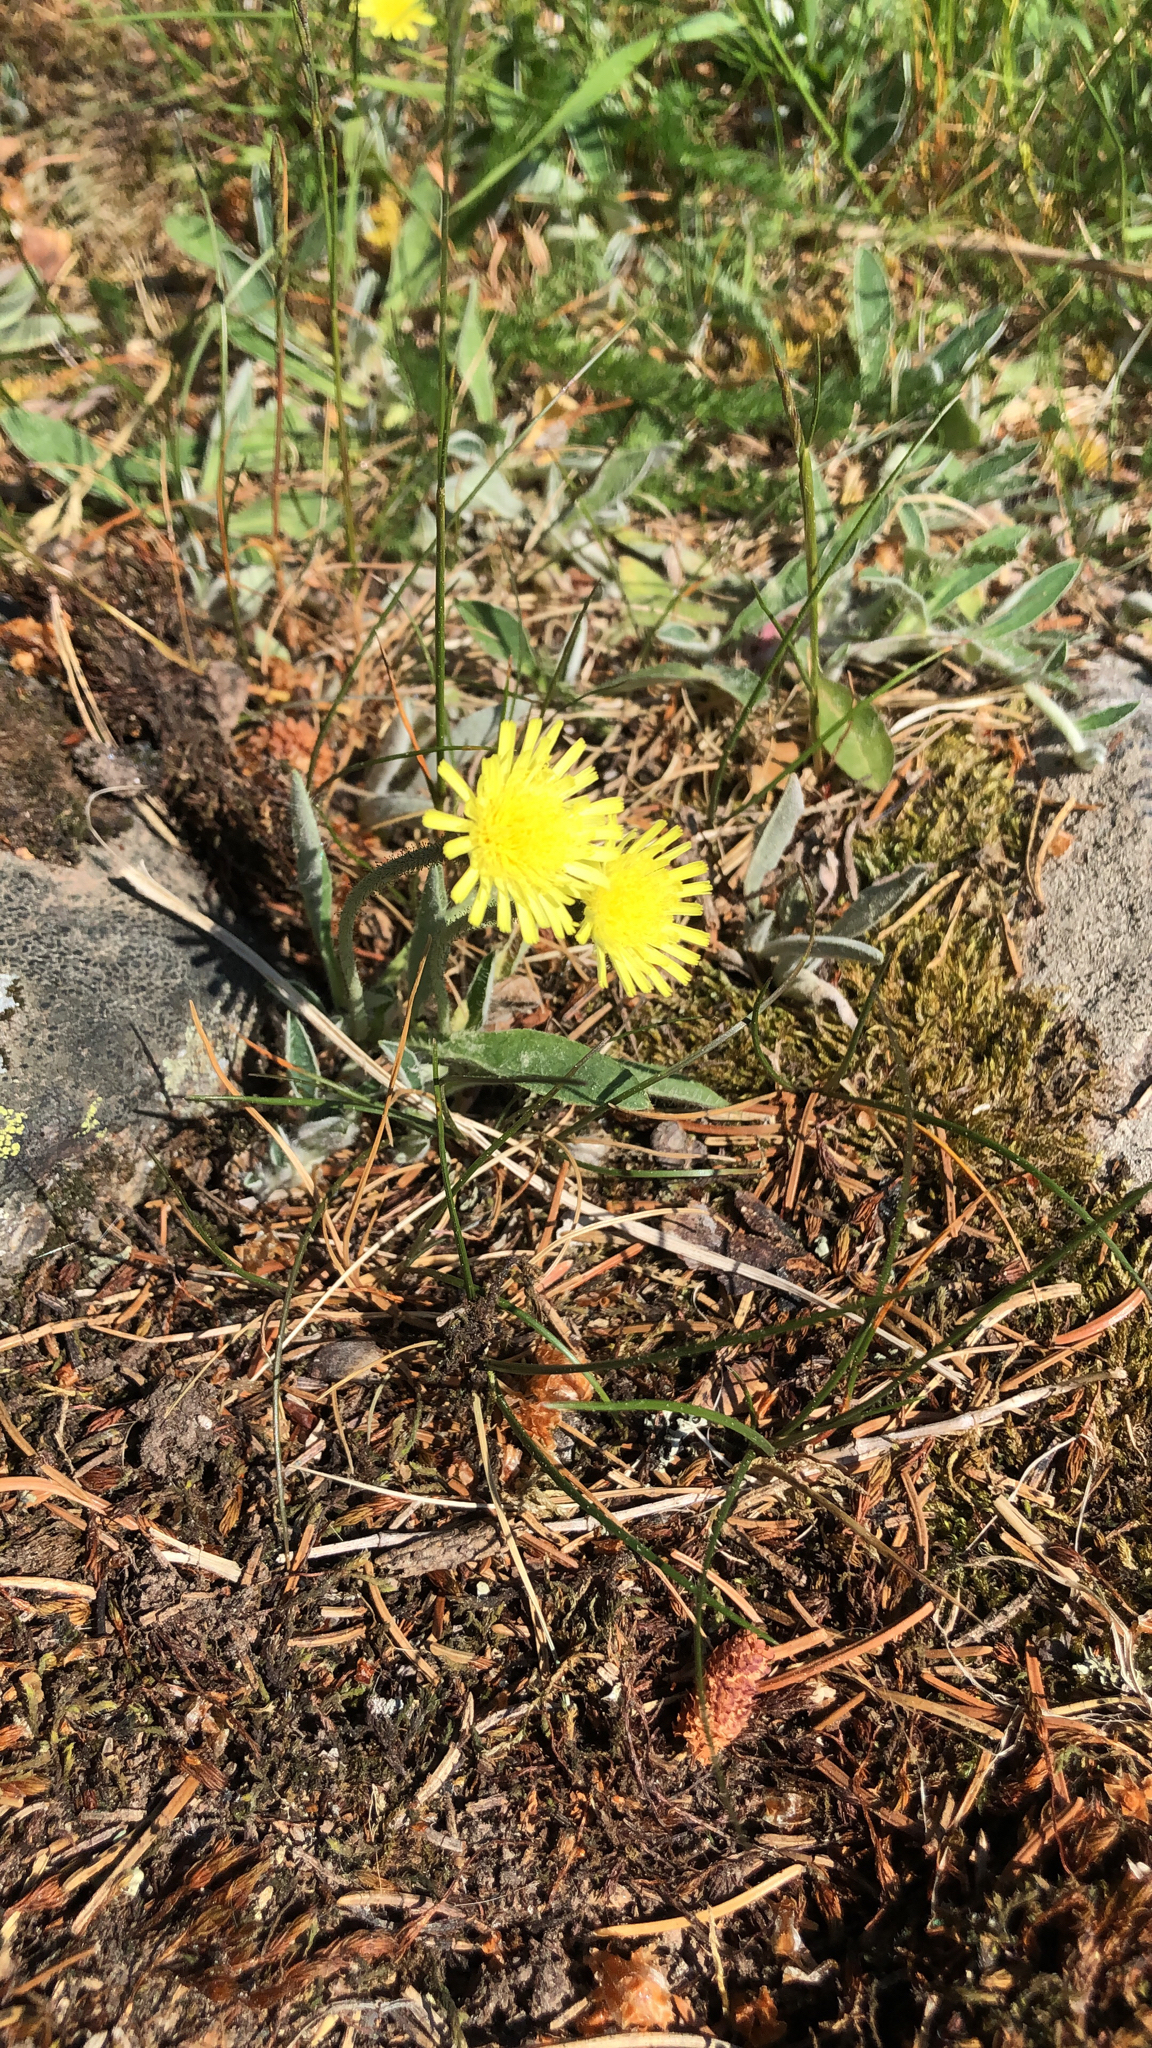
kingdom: Plantae
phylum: Tracheophyta
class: Magnoliopsida
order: Asterales
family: Asteraceae
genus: Pilosella
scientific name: Pilosella officinarum
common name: Mouse-ear hawkweed
